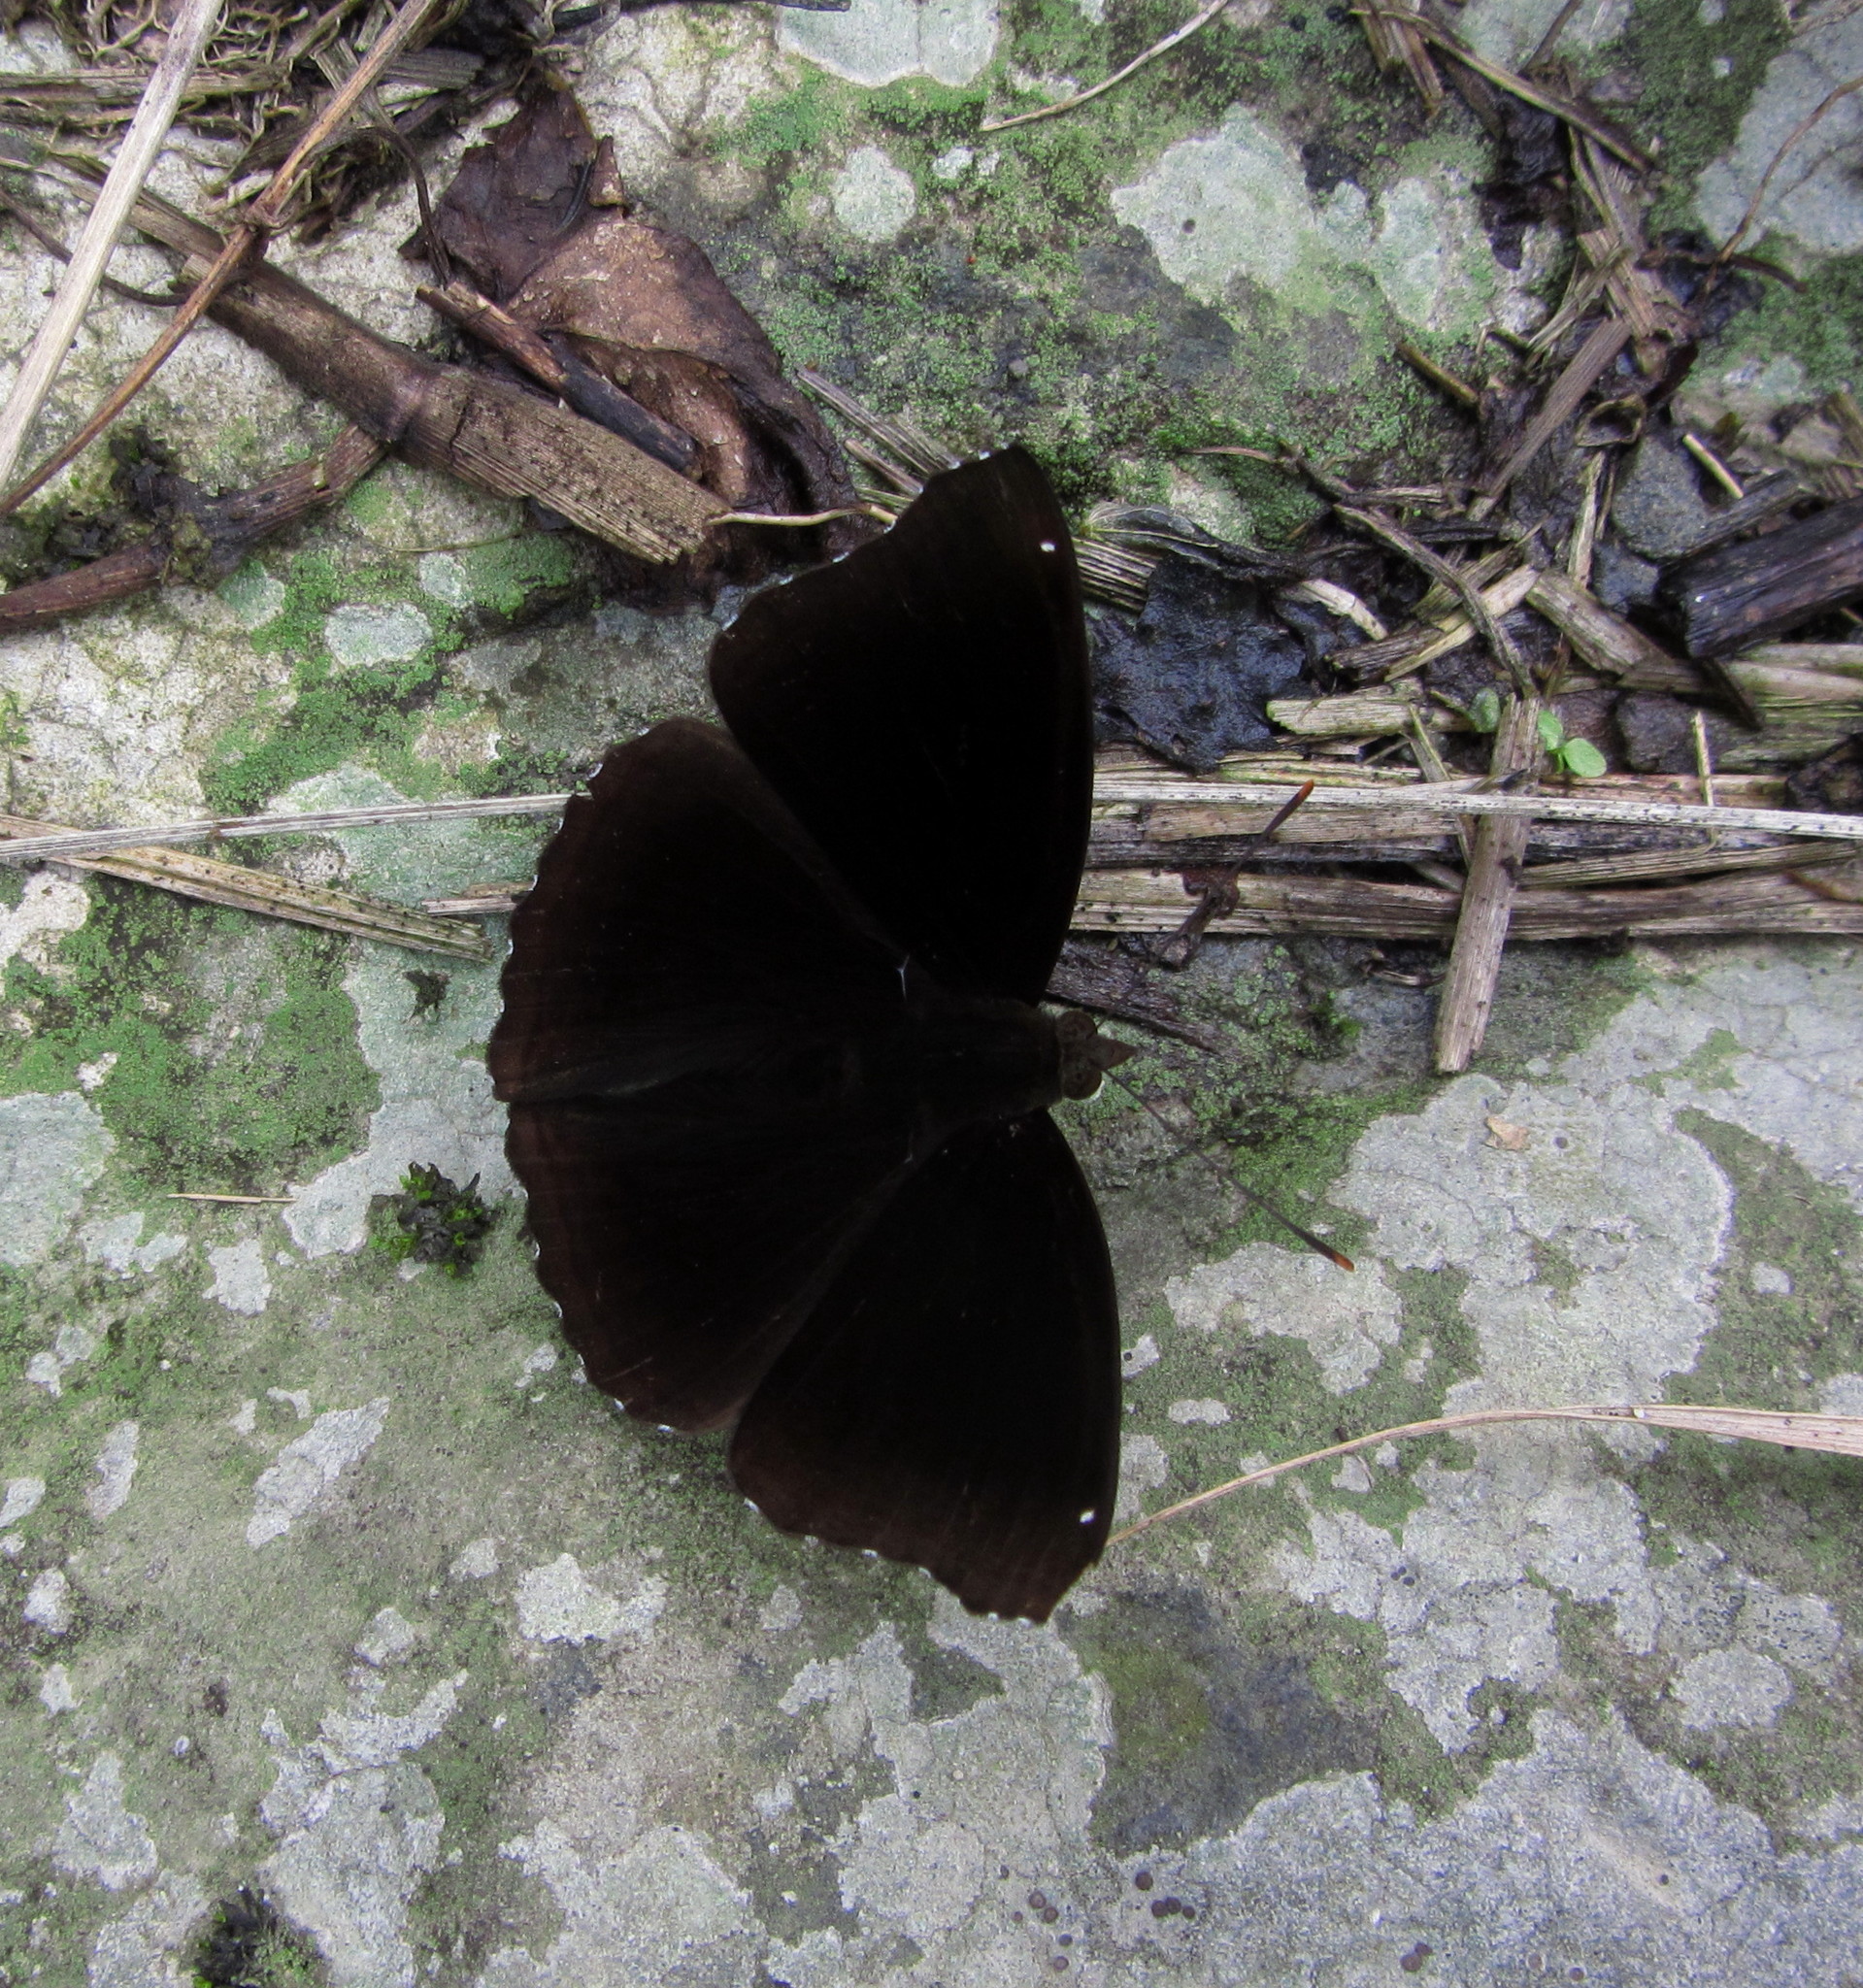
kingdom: Animalia
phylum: Arthropoda
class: Insecta
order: Lepidoptera
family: Nymphalidae
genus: Apatura
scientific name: Apatura Rohana spec
